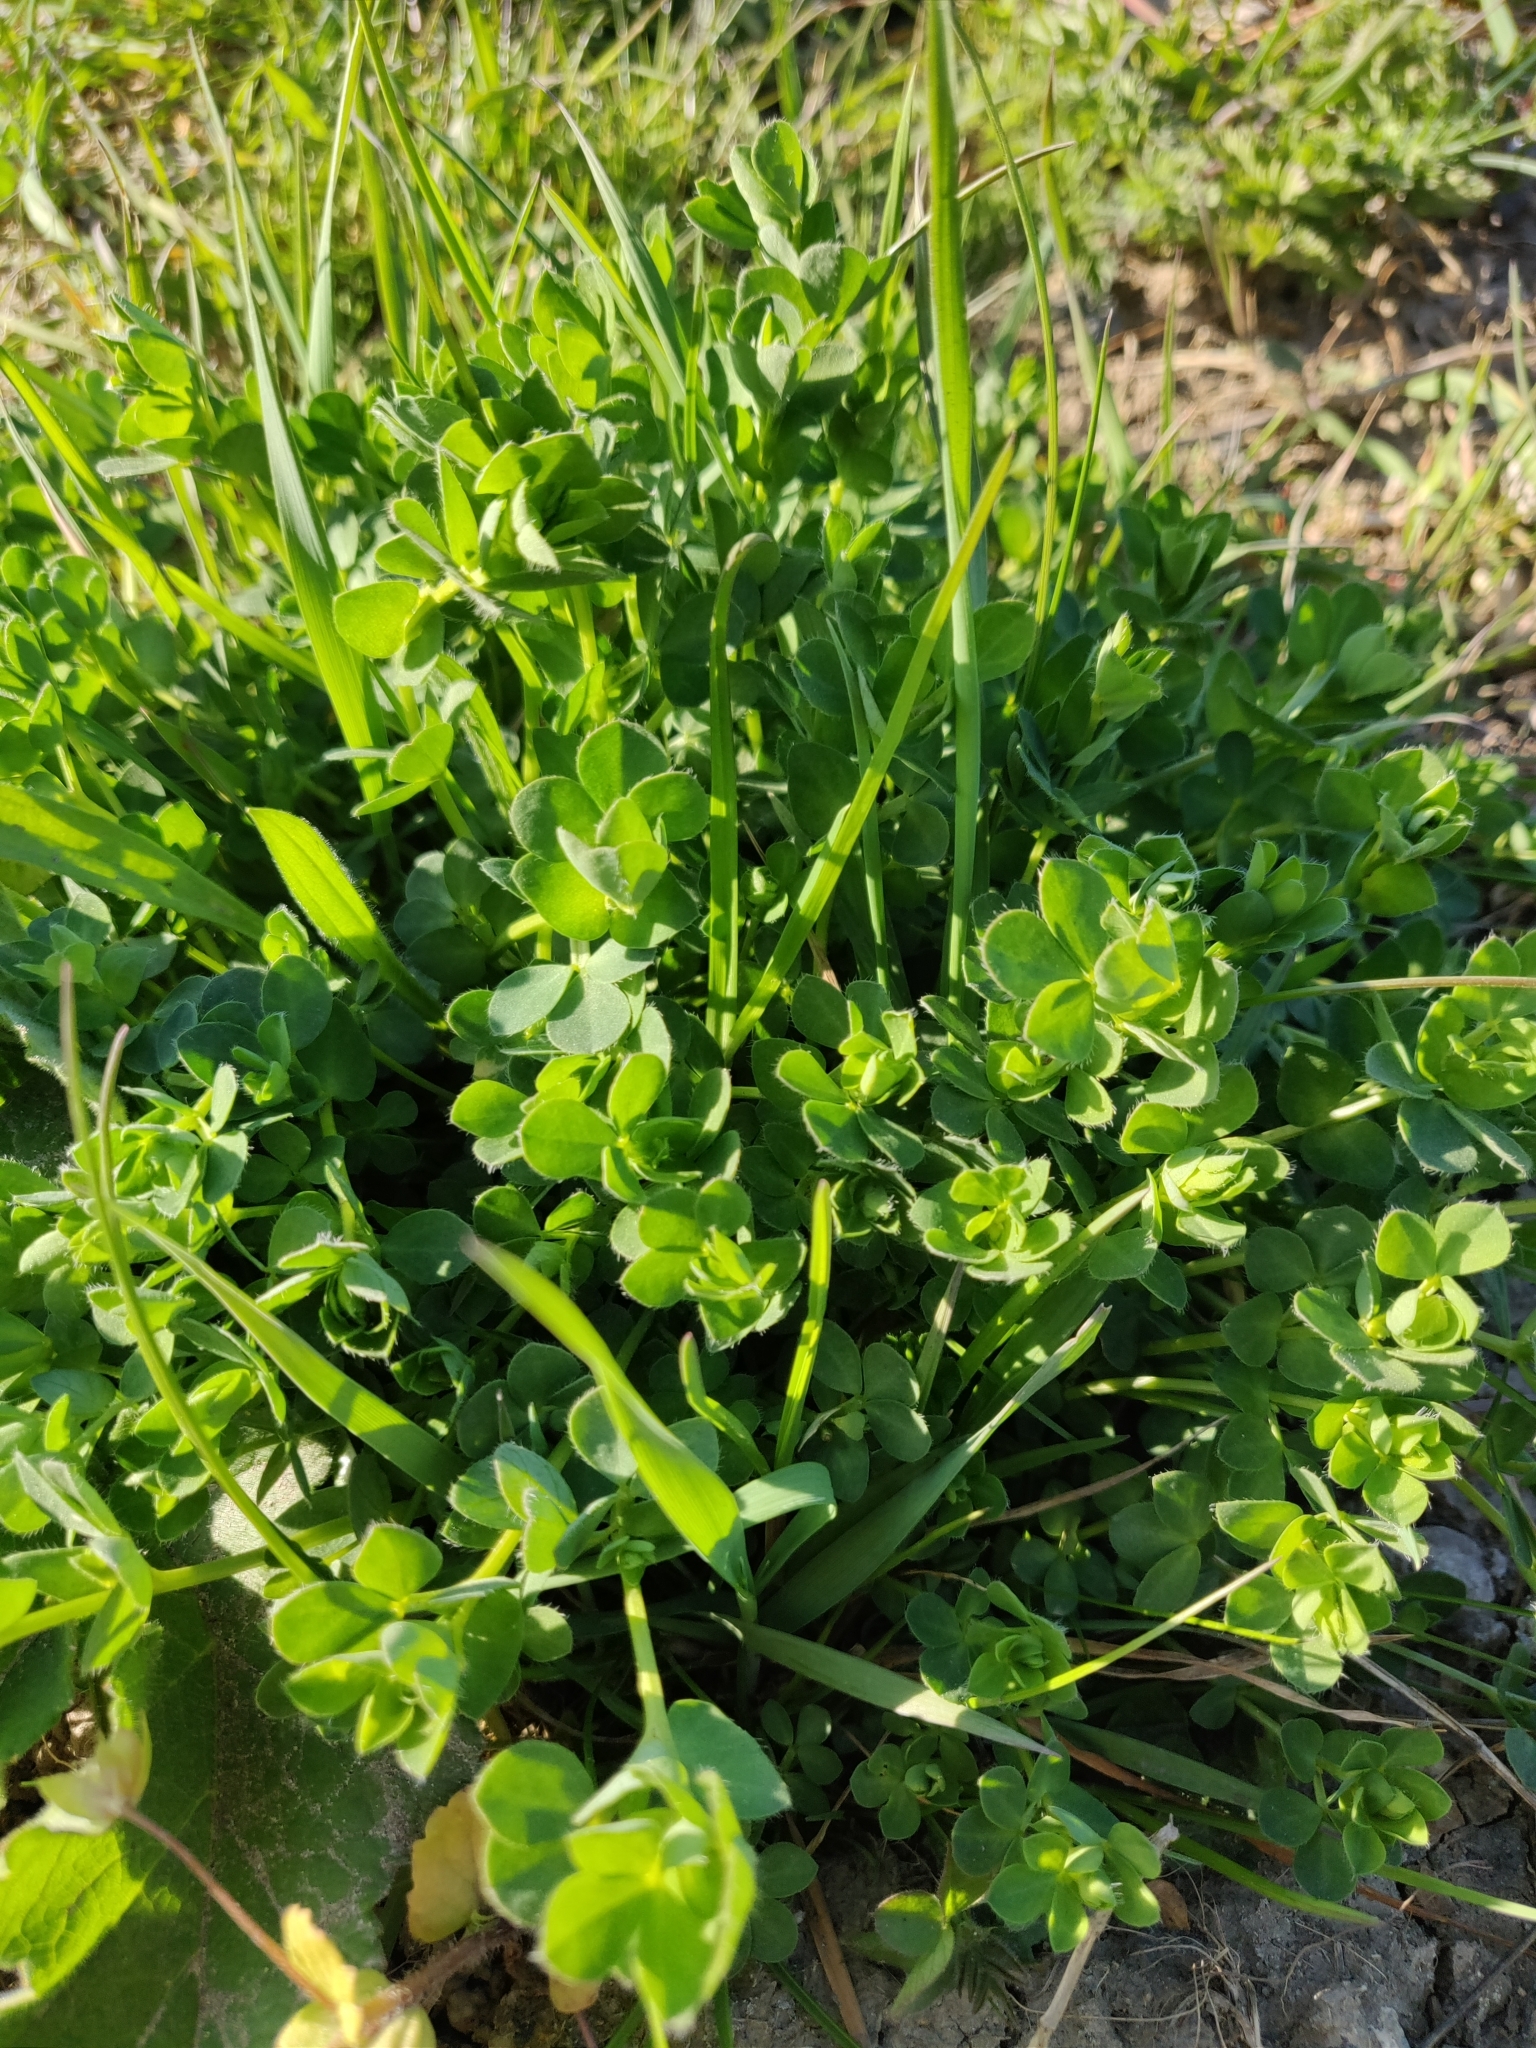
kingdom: Plantae
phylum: Tracheophyta
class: Magnoliopsida
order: Fabales
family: Fabaceae
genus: Lotus
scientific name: Lotus corniculatus
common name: Common bird's-foot-trefoil
